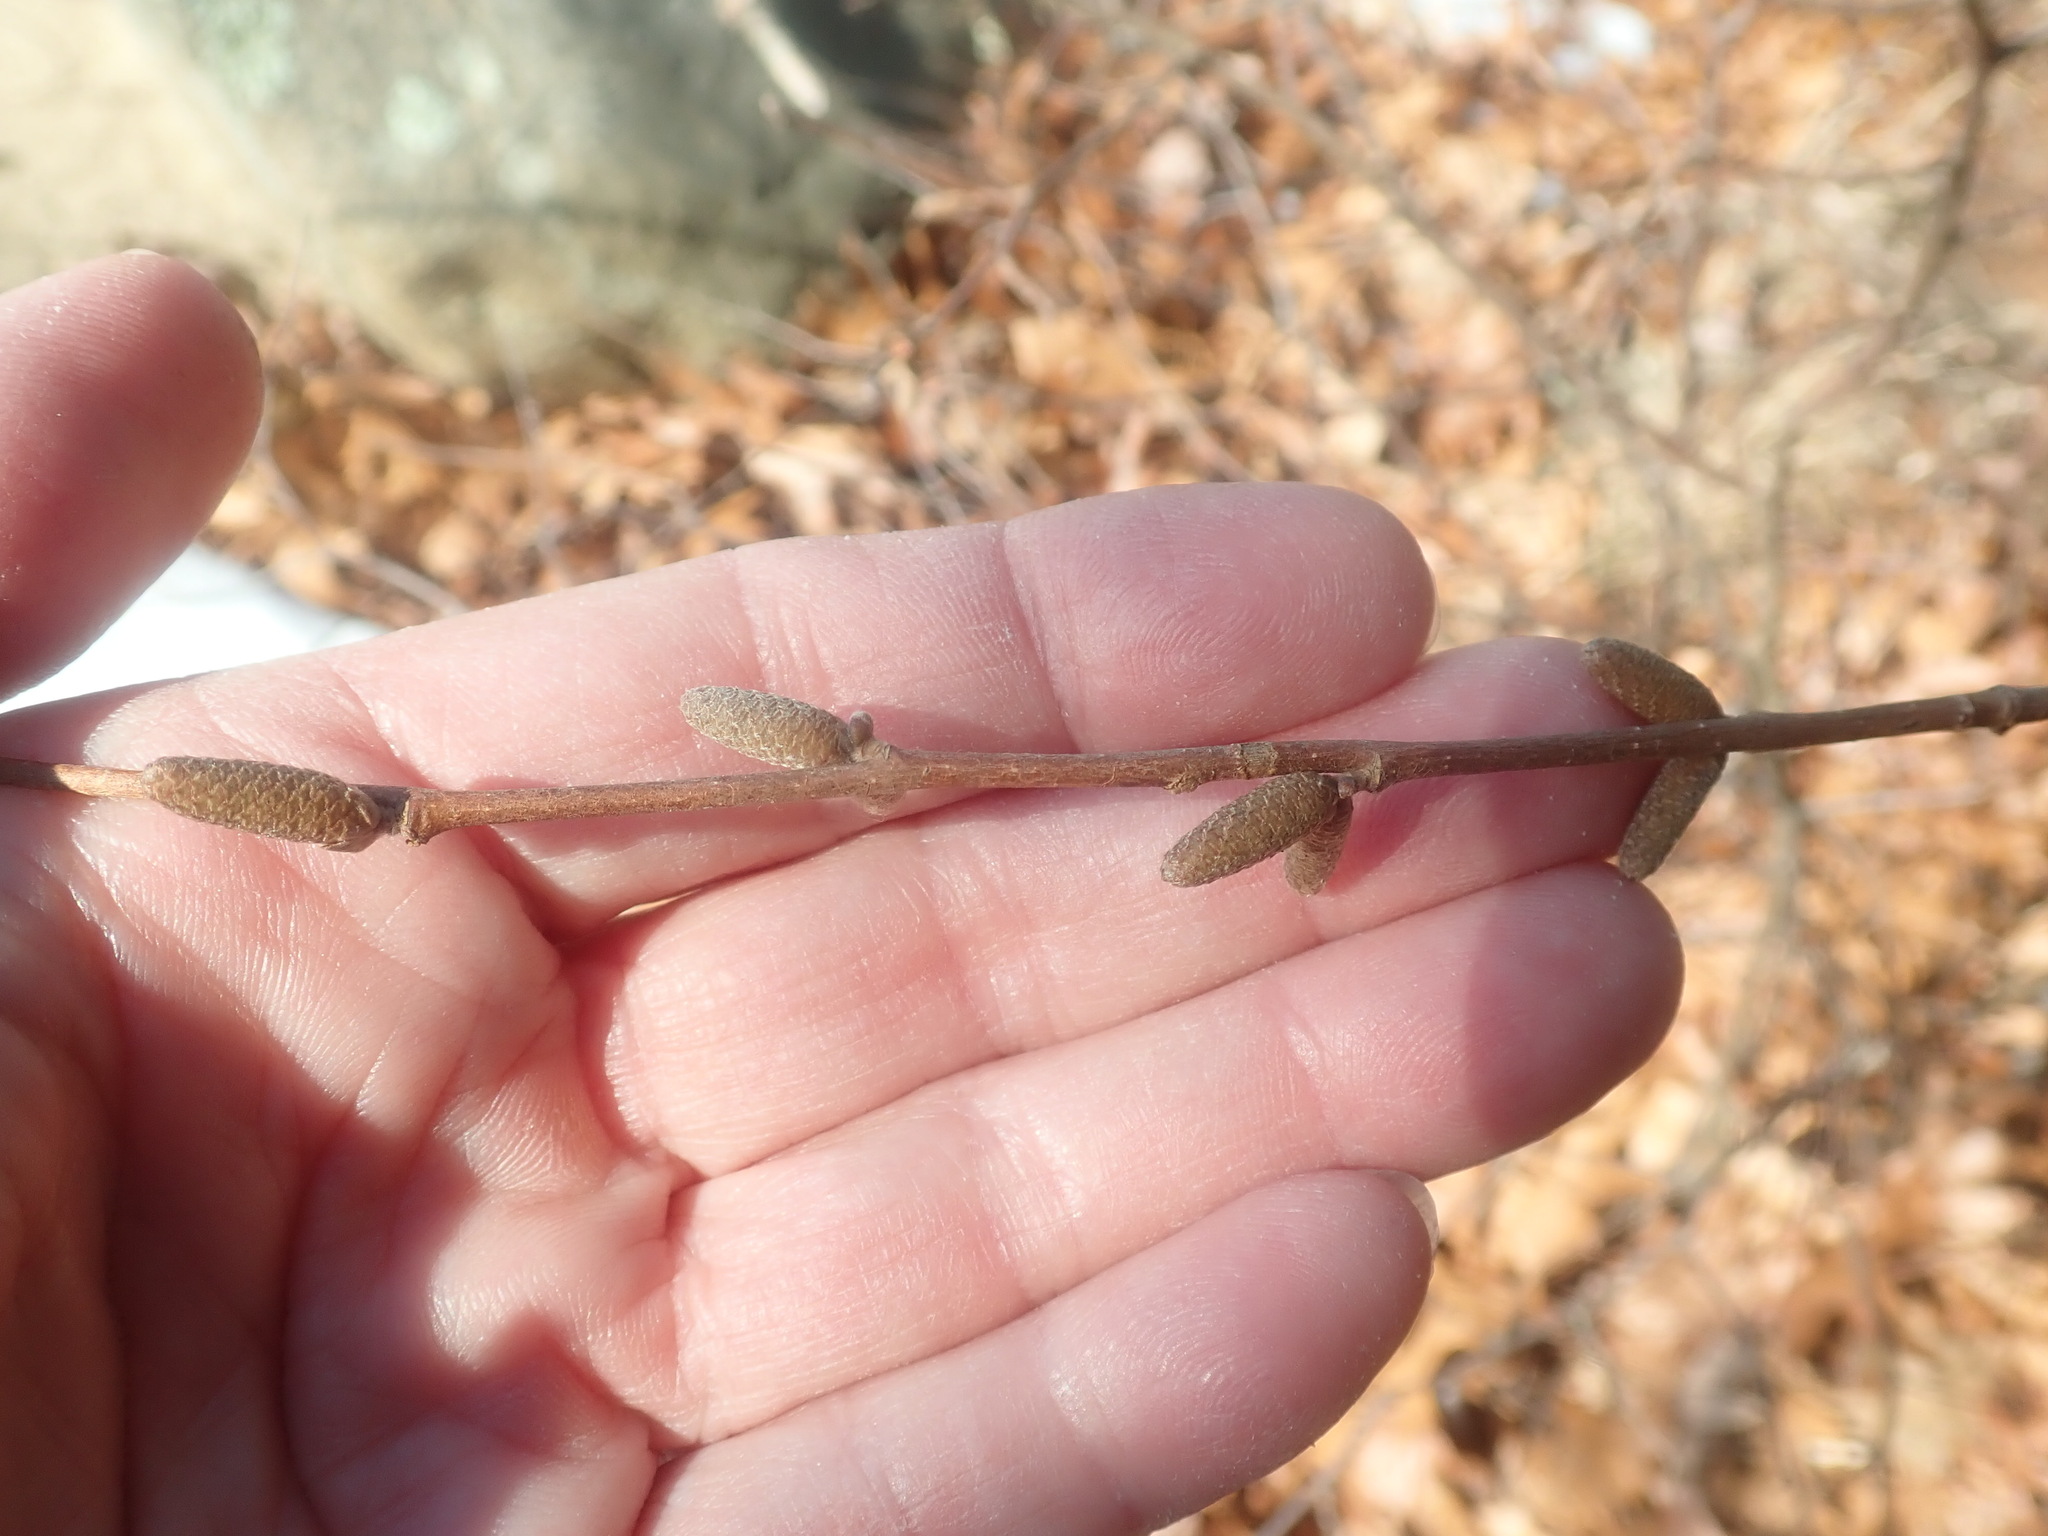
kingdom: Plantae
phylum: Tracheophyta
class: Magnoliopsida
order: Fagales
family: Betulaceae
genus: Corylus
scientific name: Corylus cornuta
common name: Beaked hazel
